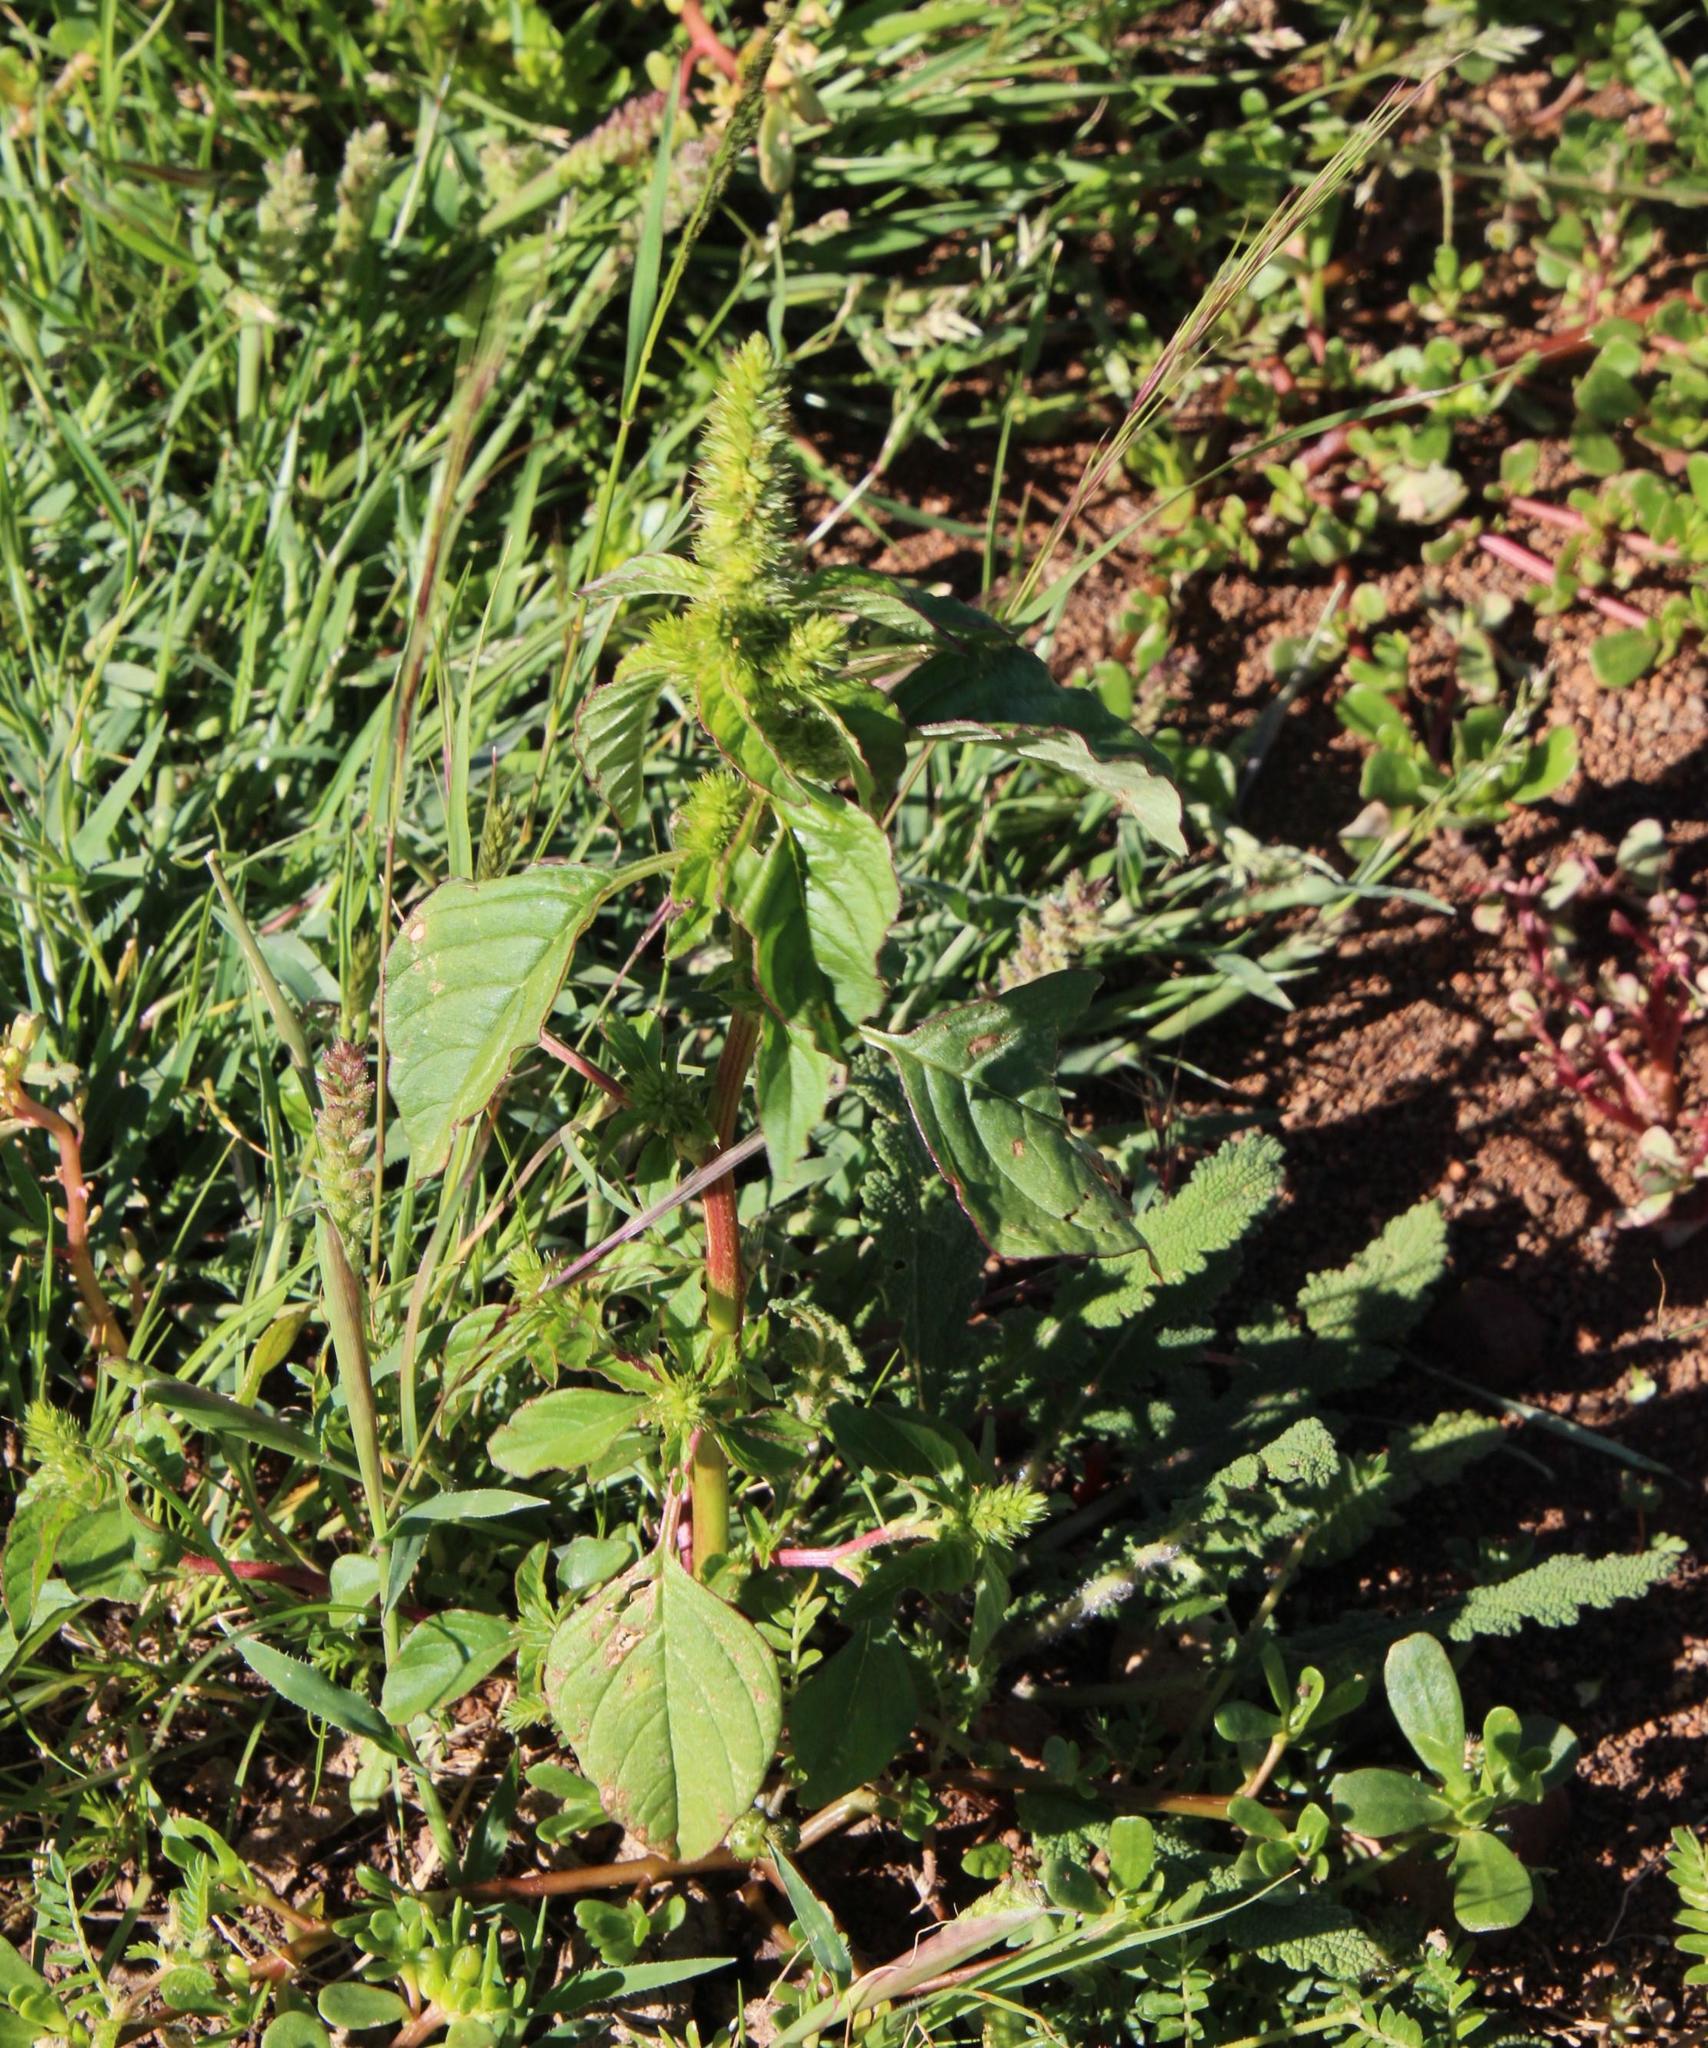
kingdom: Plantae
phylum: Tracheophyta
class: Magnoliopsida
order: Caryophyllales
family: Amaranthaceae
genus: Amaranthus
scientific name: Amaranthus viridis
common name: Slender amaranth
